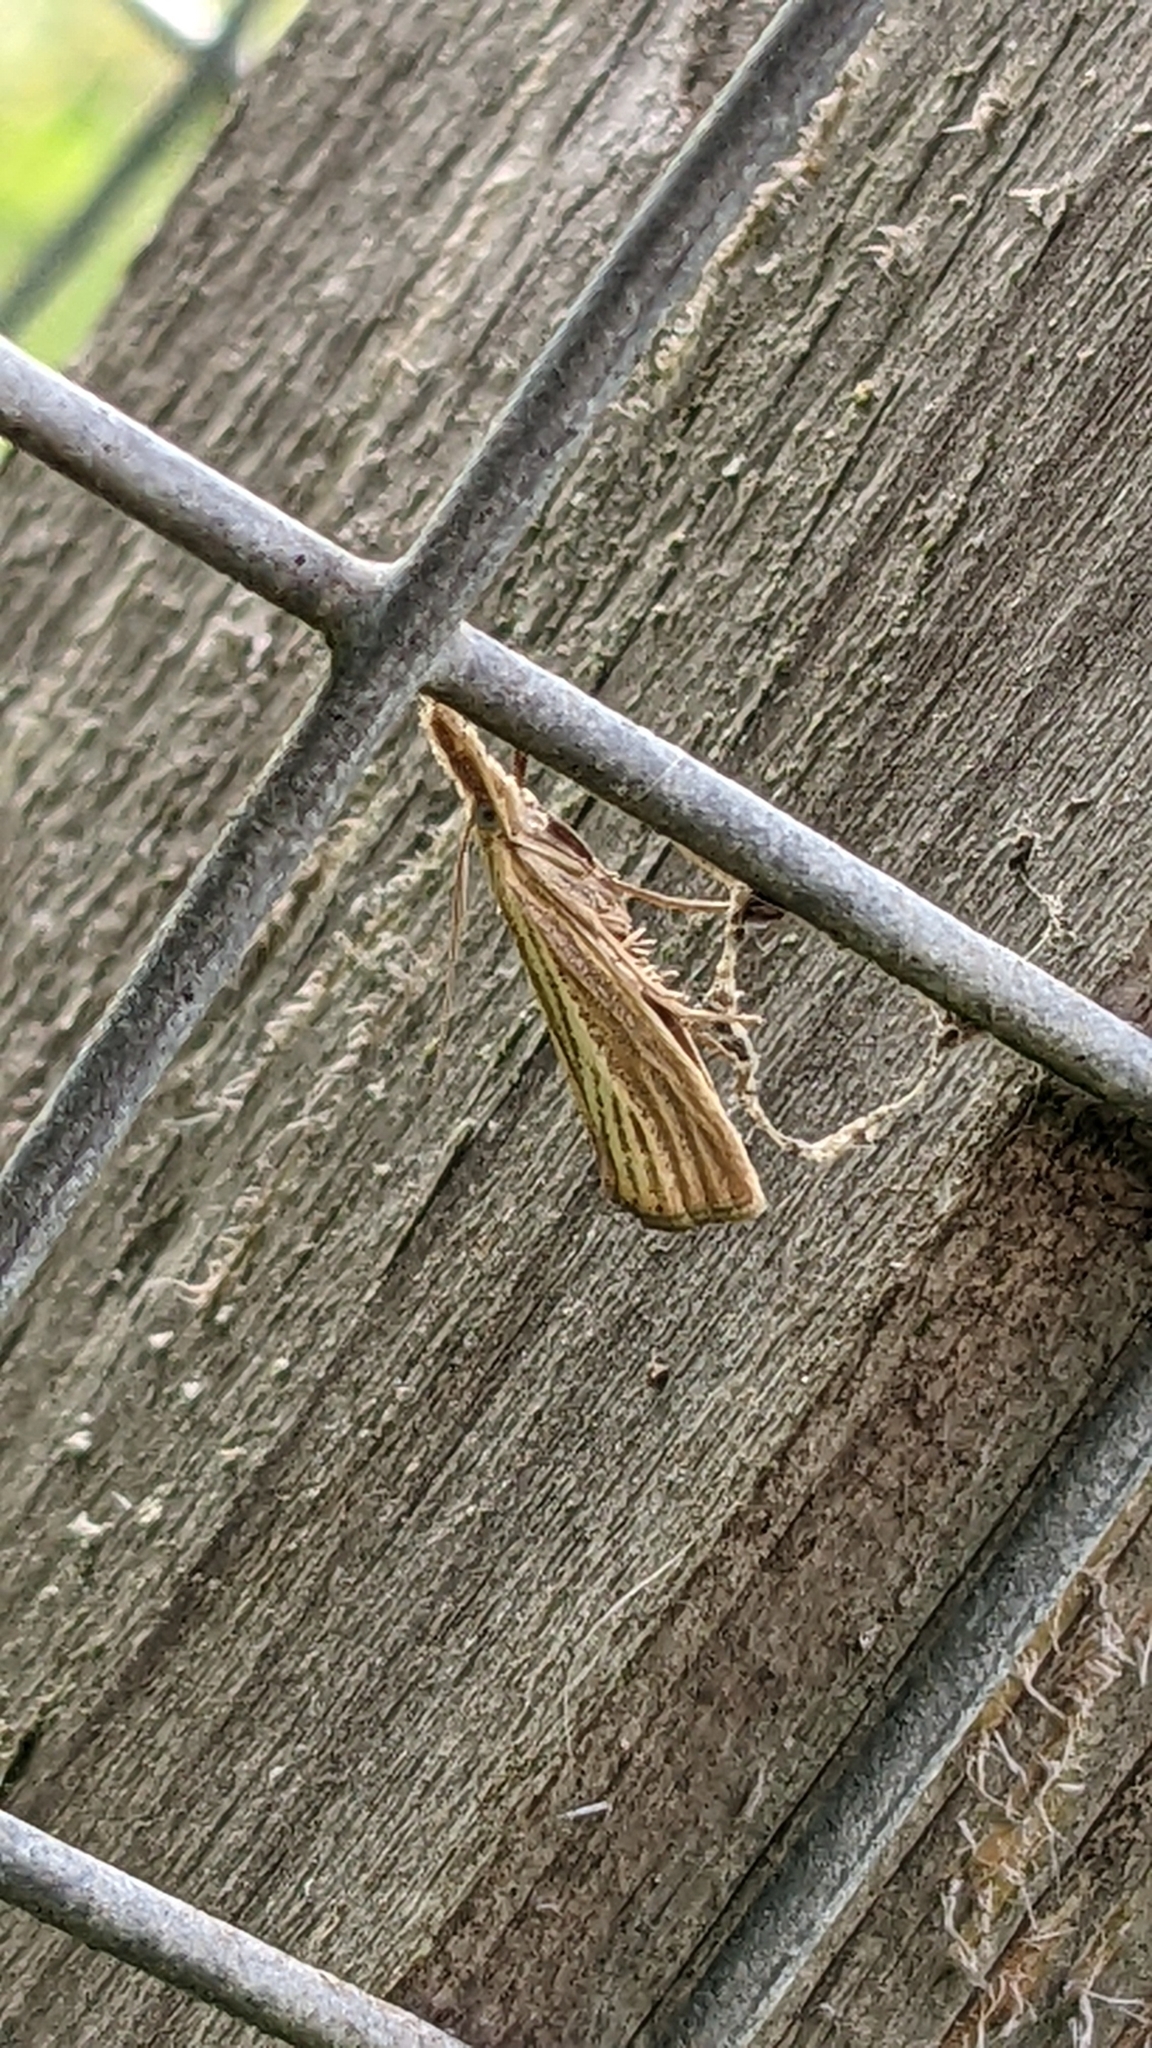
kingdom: Animalia
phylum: Arthropoda
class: Insecta
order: Lepidoptera
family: Crambidae
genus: Agriphila
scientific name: Agriphila straminella
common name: Straw grass-veneer
